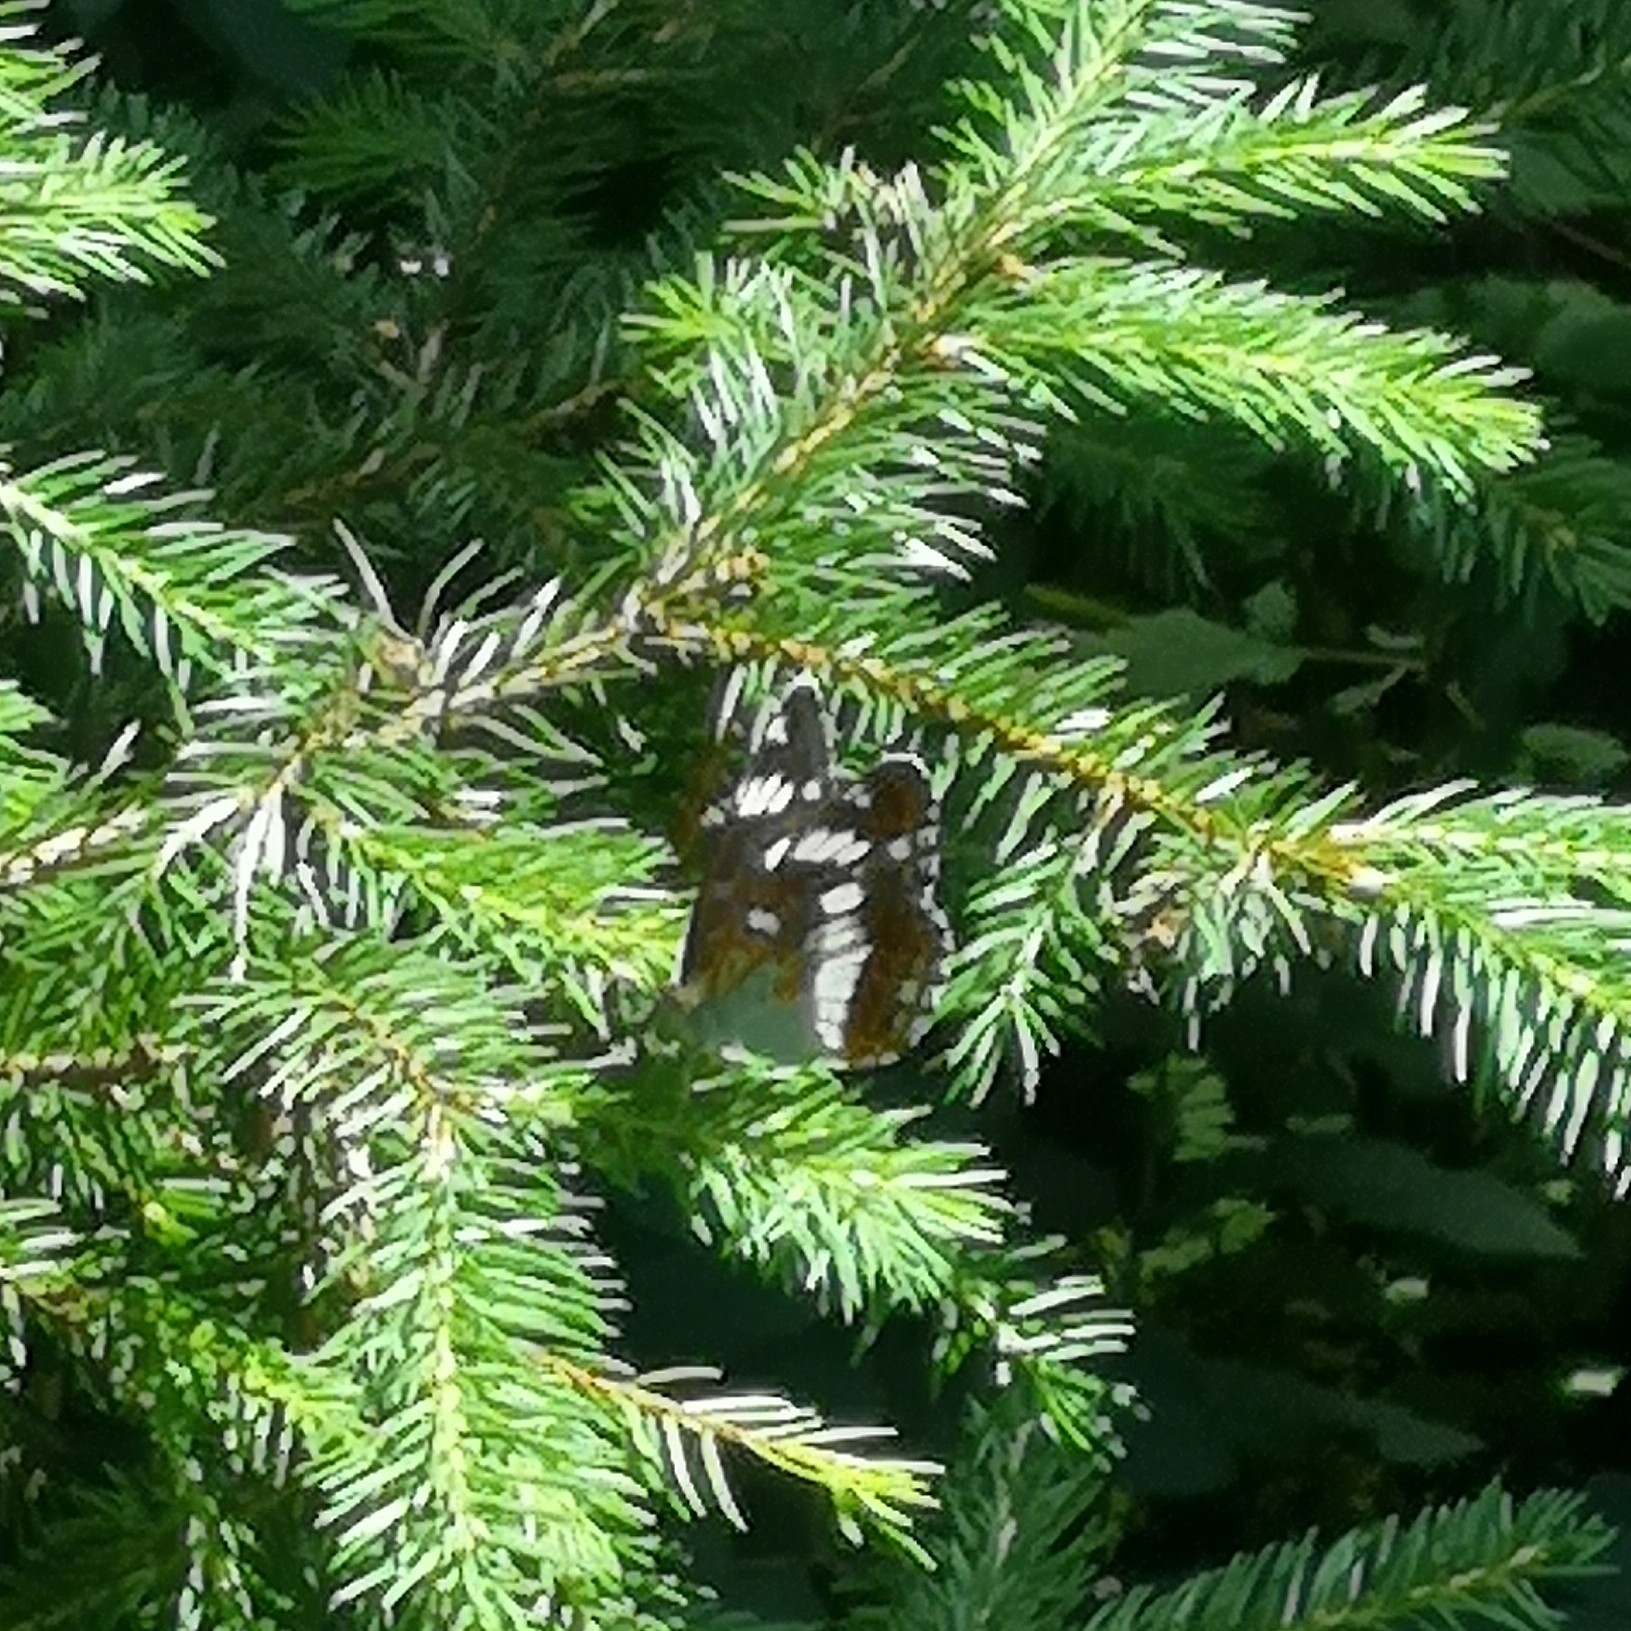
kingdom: Animalia
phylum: Arthropoda
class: Insecta
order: Lepidoptera
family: Nymphalidae
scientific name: Nymphalidae
